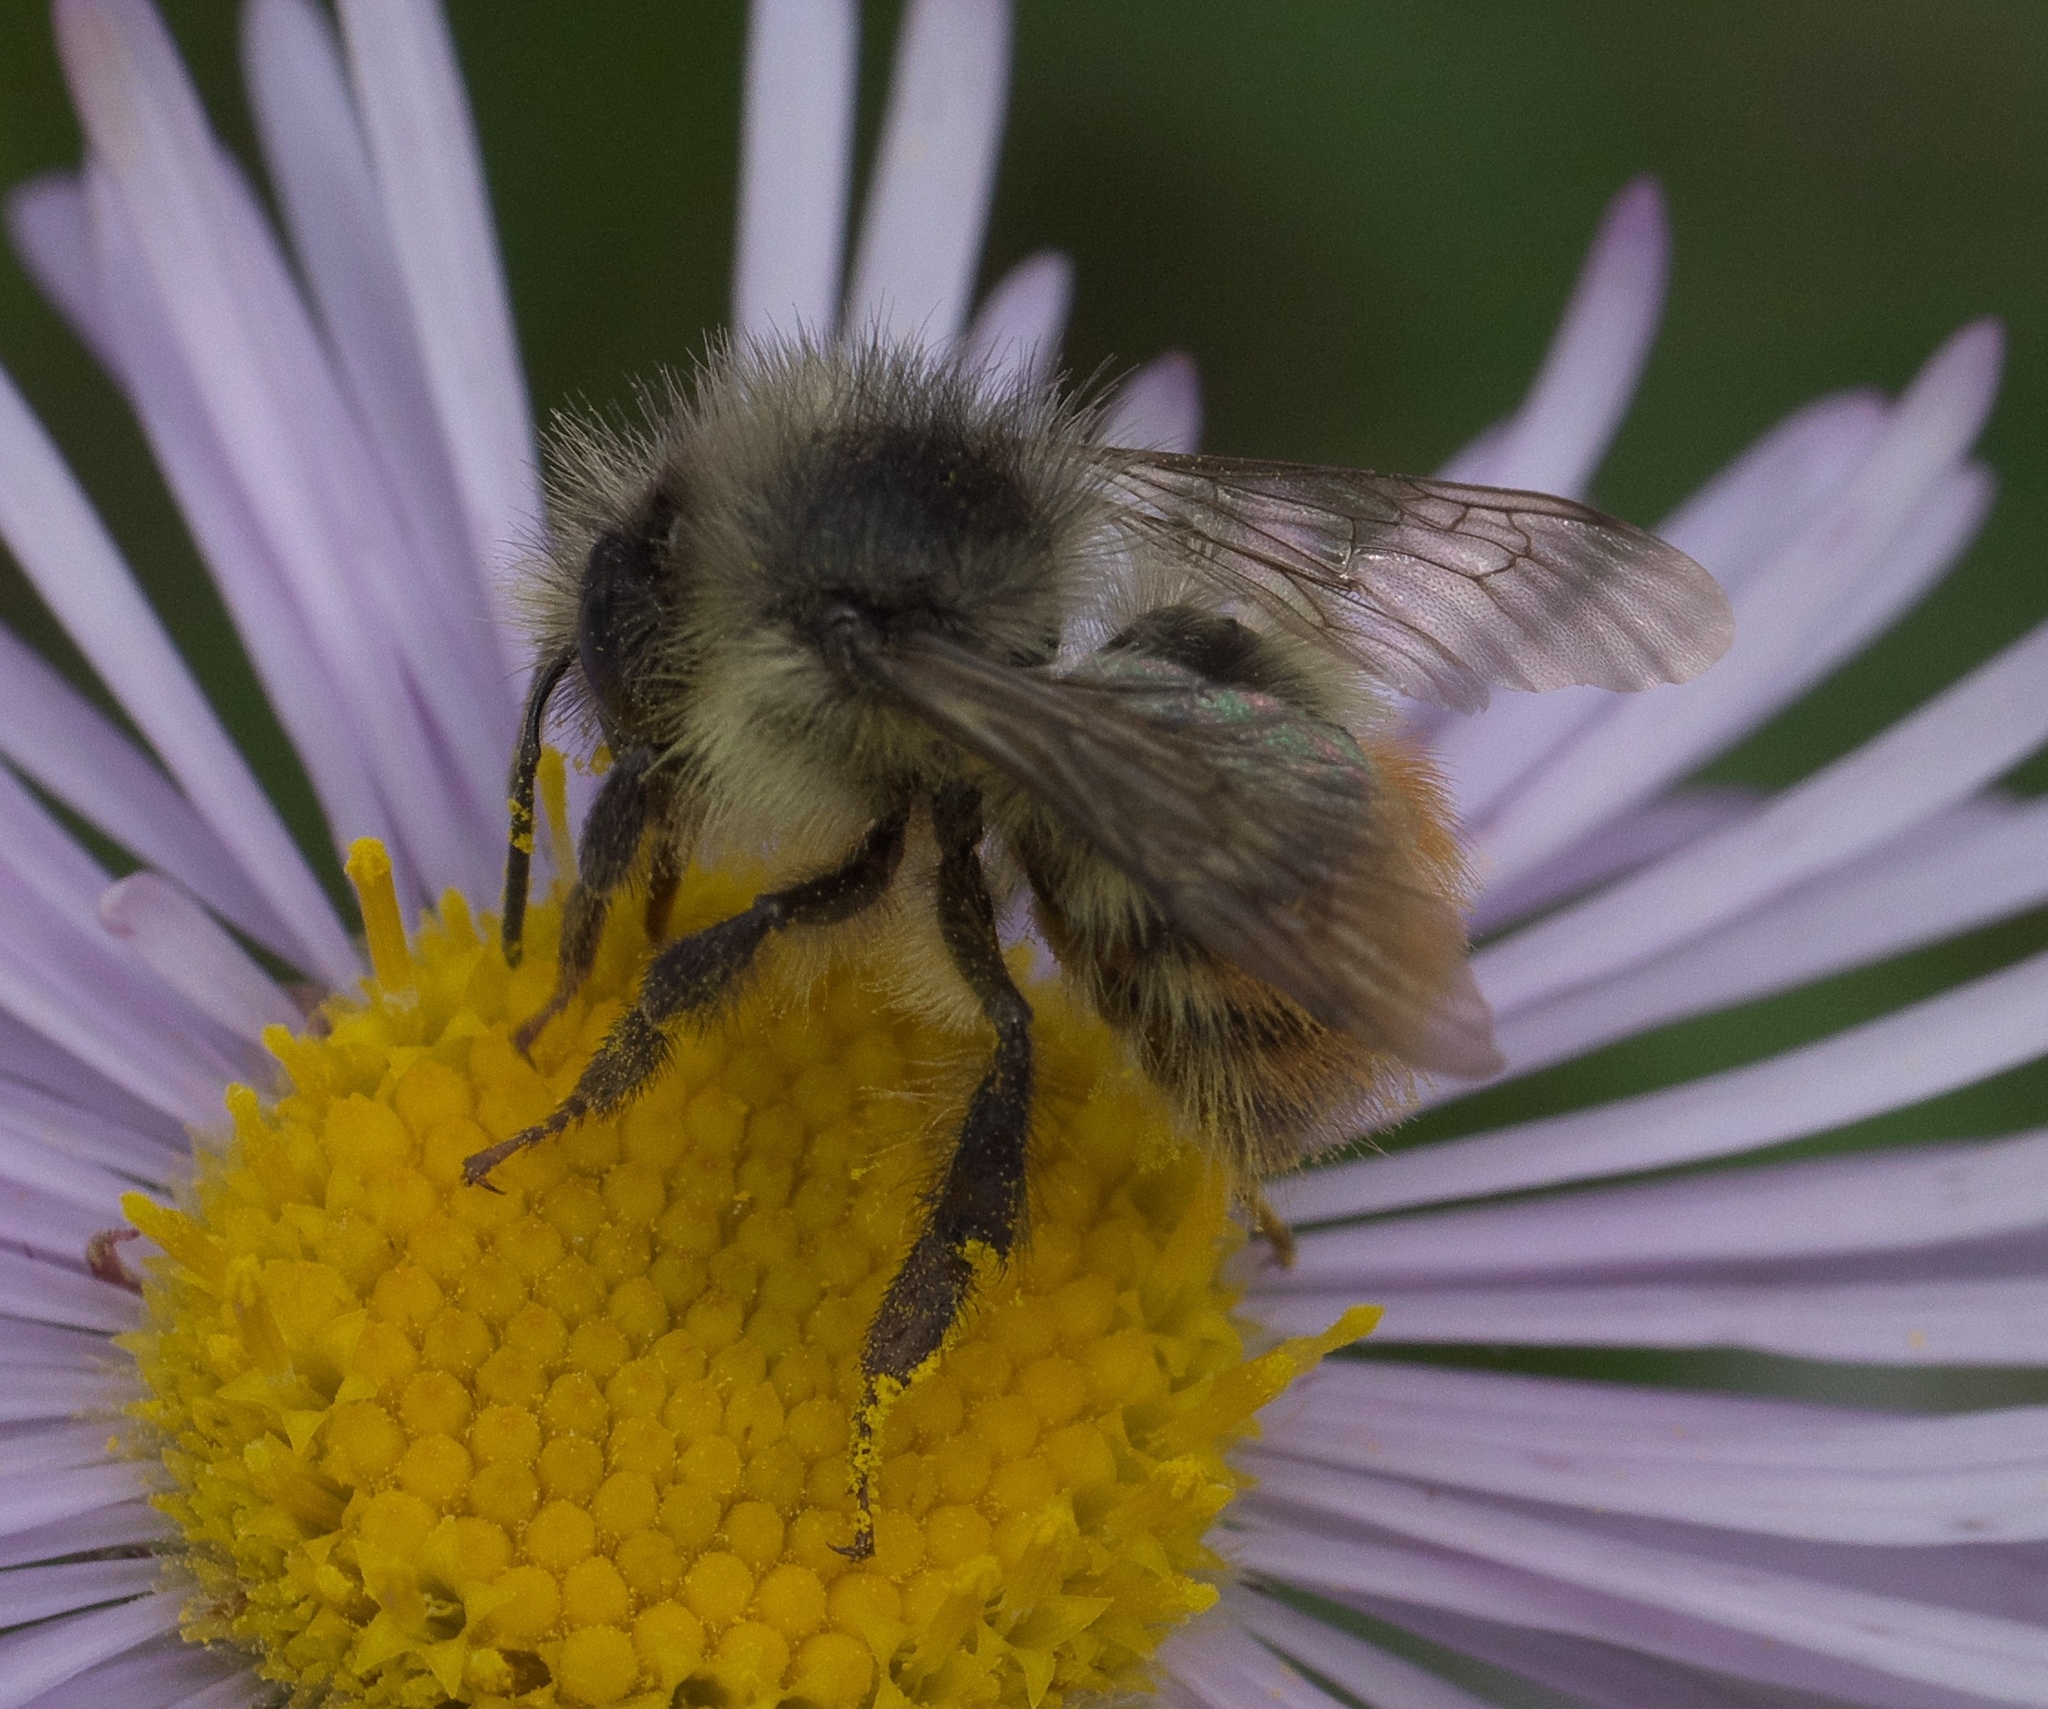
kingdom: Animalia
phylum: Arthropoda
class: Insecta
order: Hymenoptera
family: Apidae
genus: Bombus
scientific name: Bombus flavifrons
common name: Yellow head bumble bee
